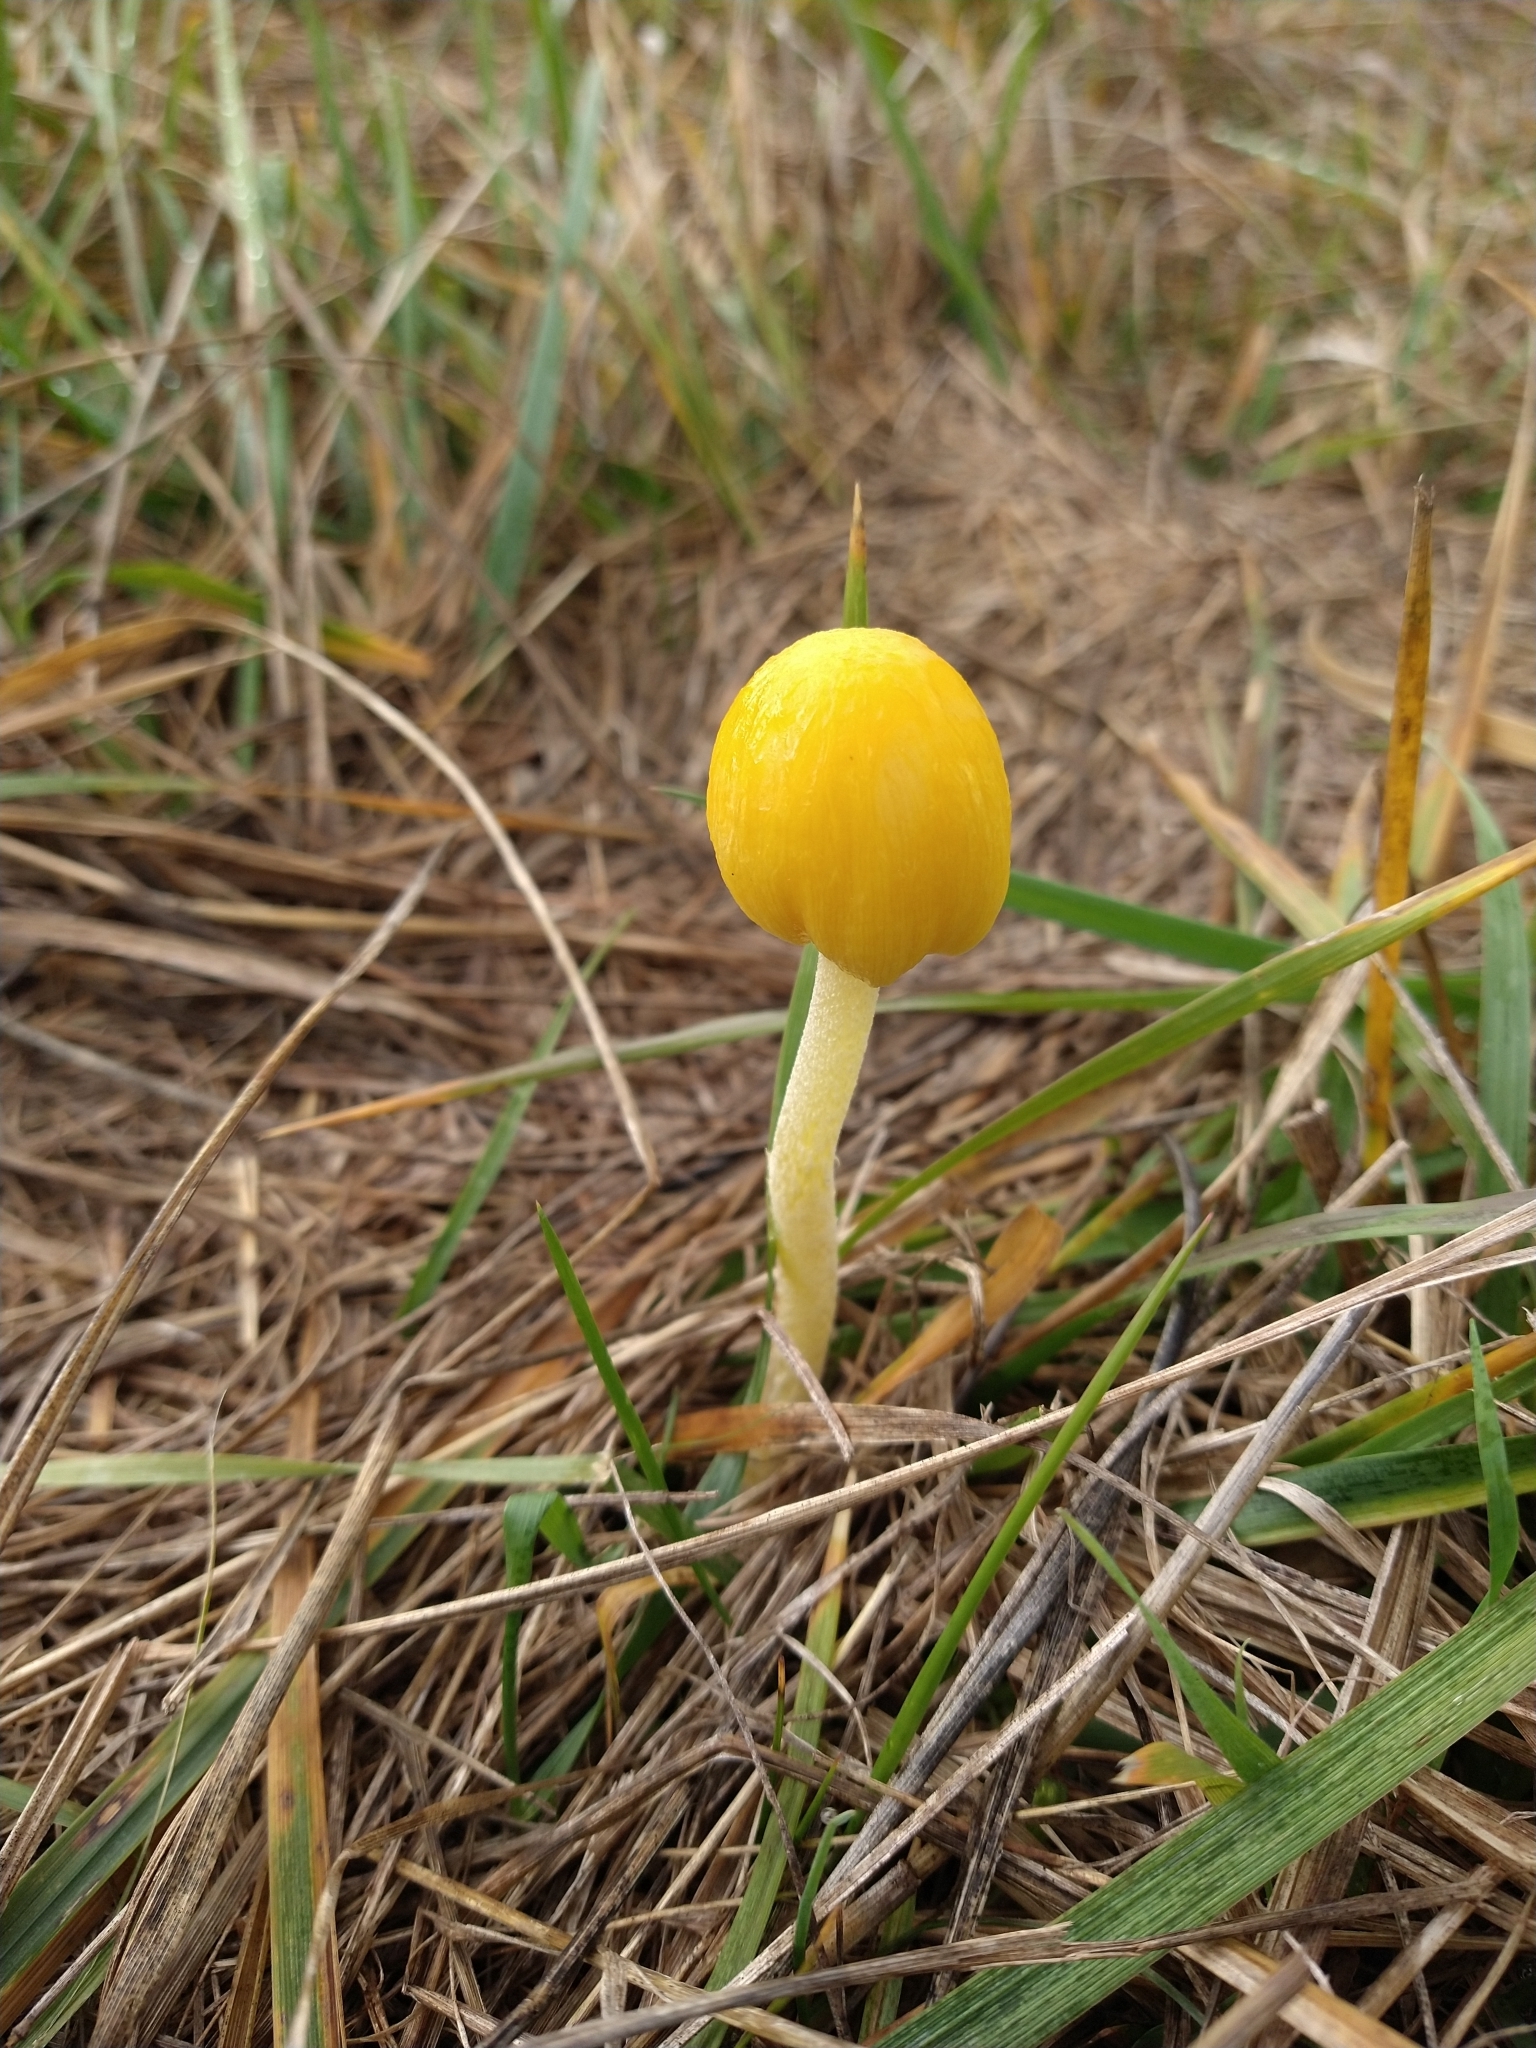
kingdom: Fungi
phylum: Basidiomycota
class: Agaricomycetes
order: Agaricales
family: Bolbitiaceae
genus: Bolbitius
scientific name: Bolbitius titubans
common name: Yellow fieldcap
